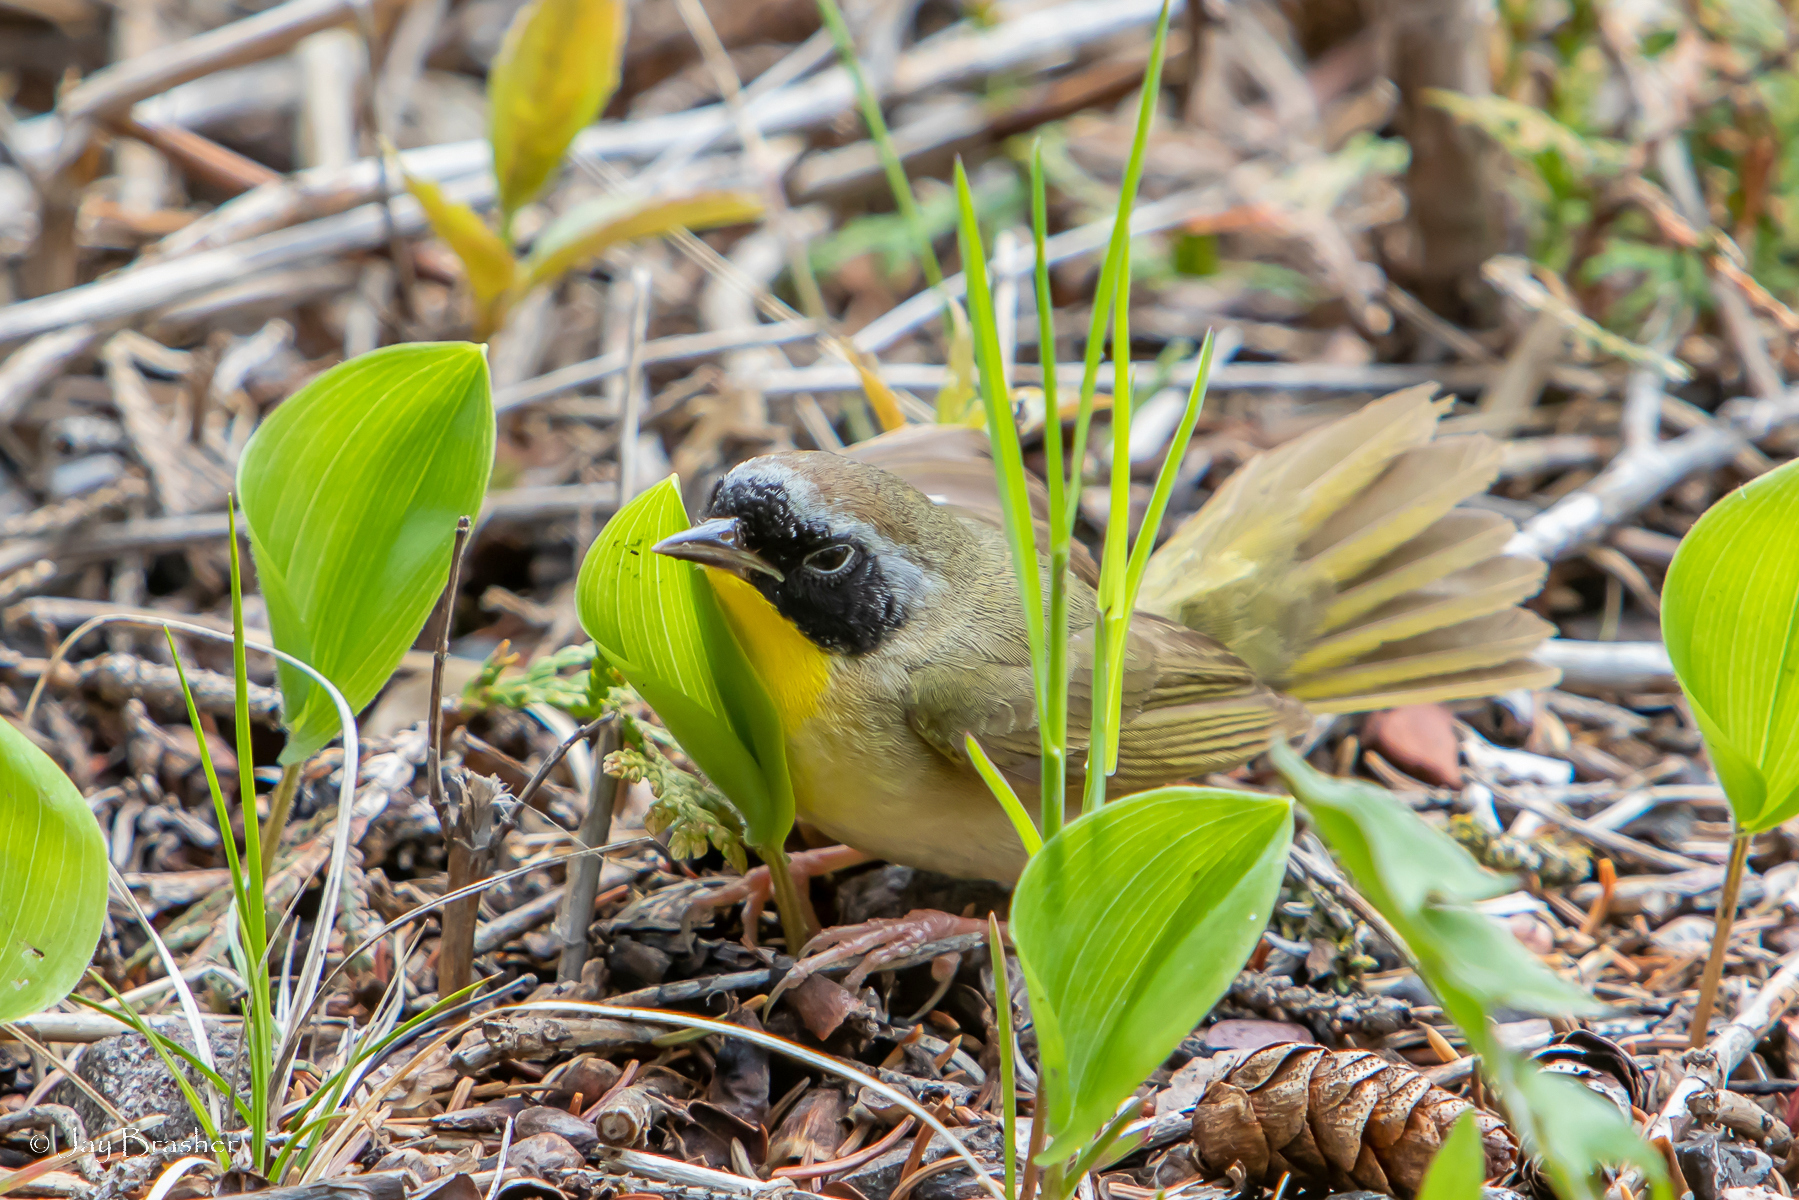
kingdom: Animalia
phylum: Chordata
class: Aves
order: Passeriformes
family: Parulidae
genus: Geothlypis
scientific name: Geothlypis trichas
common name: Common yellowthroat
